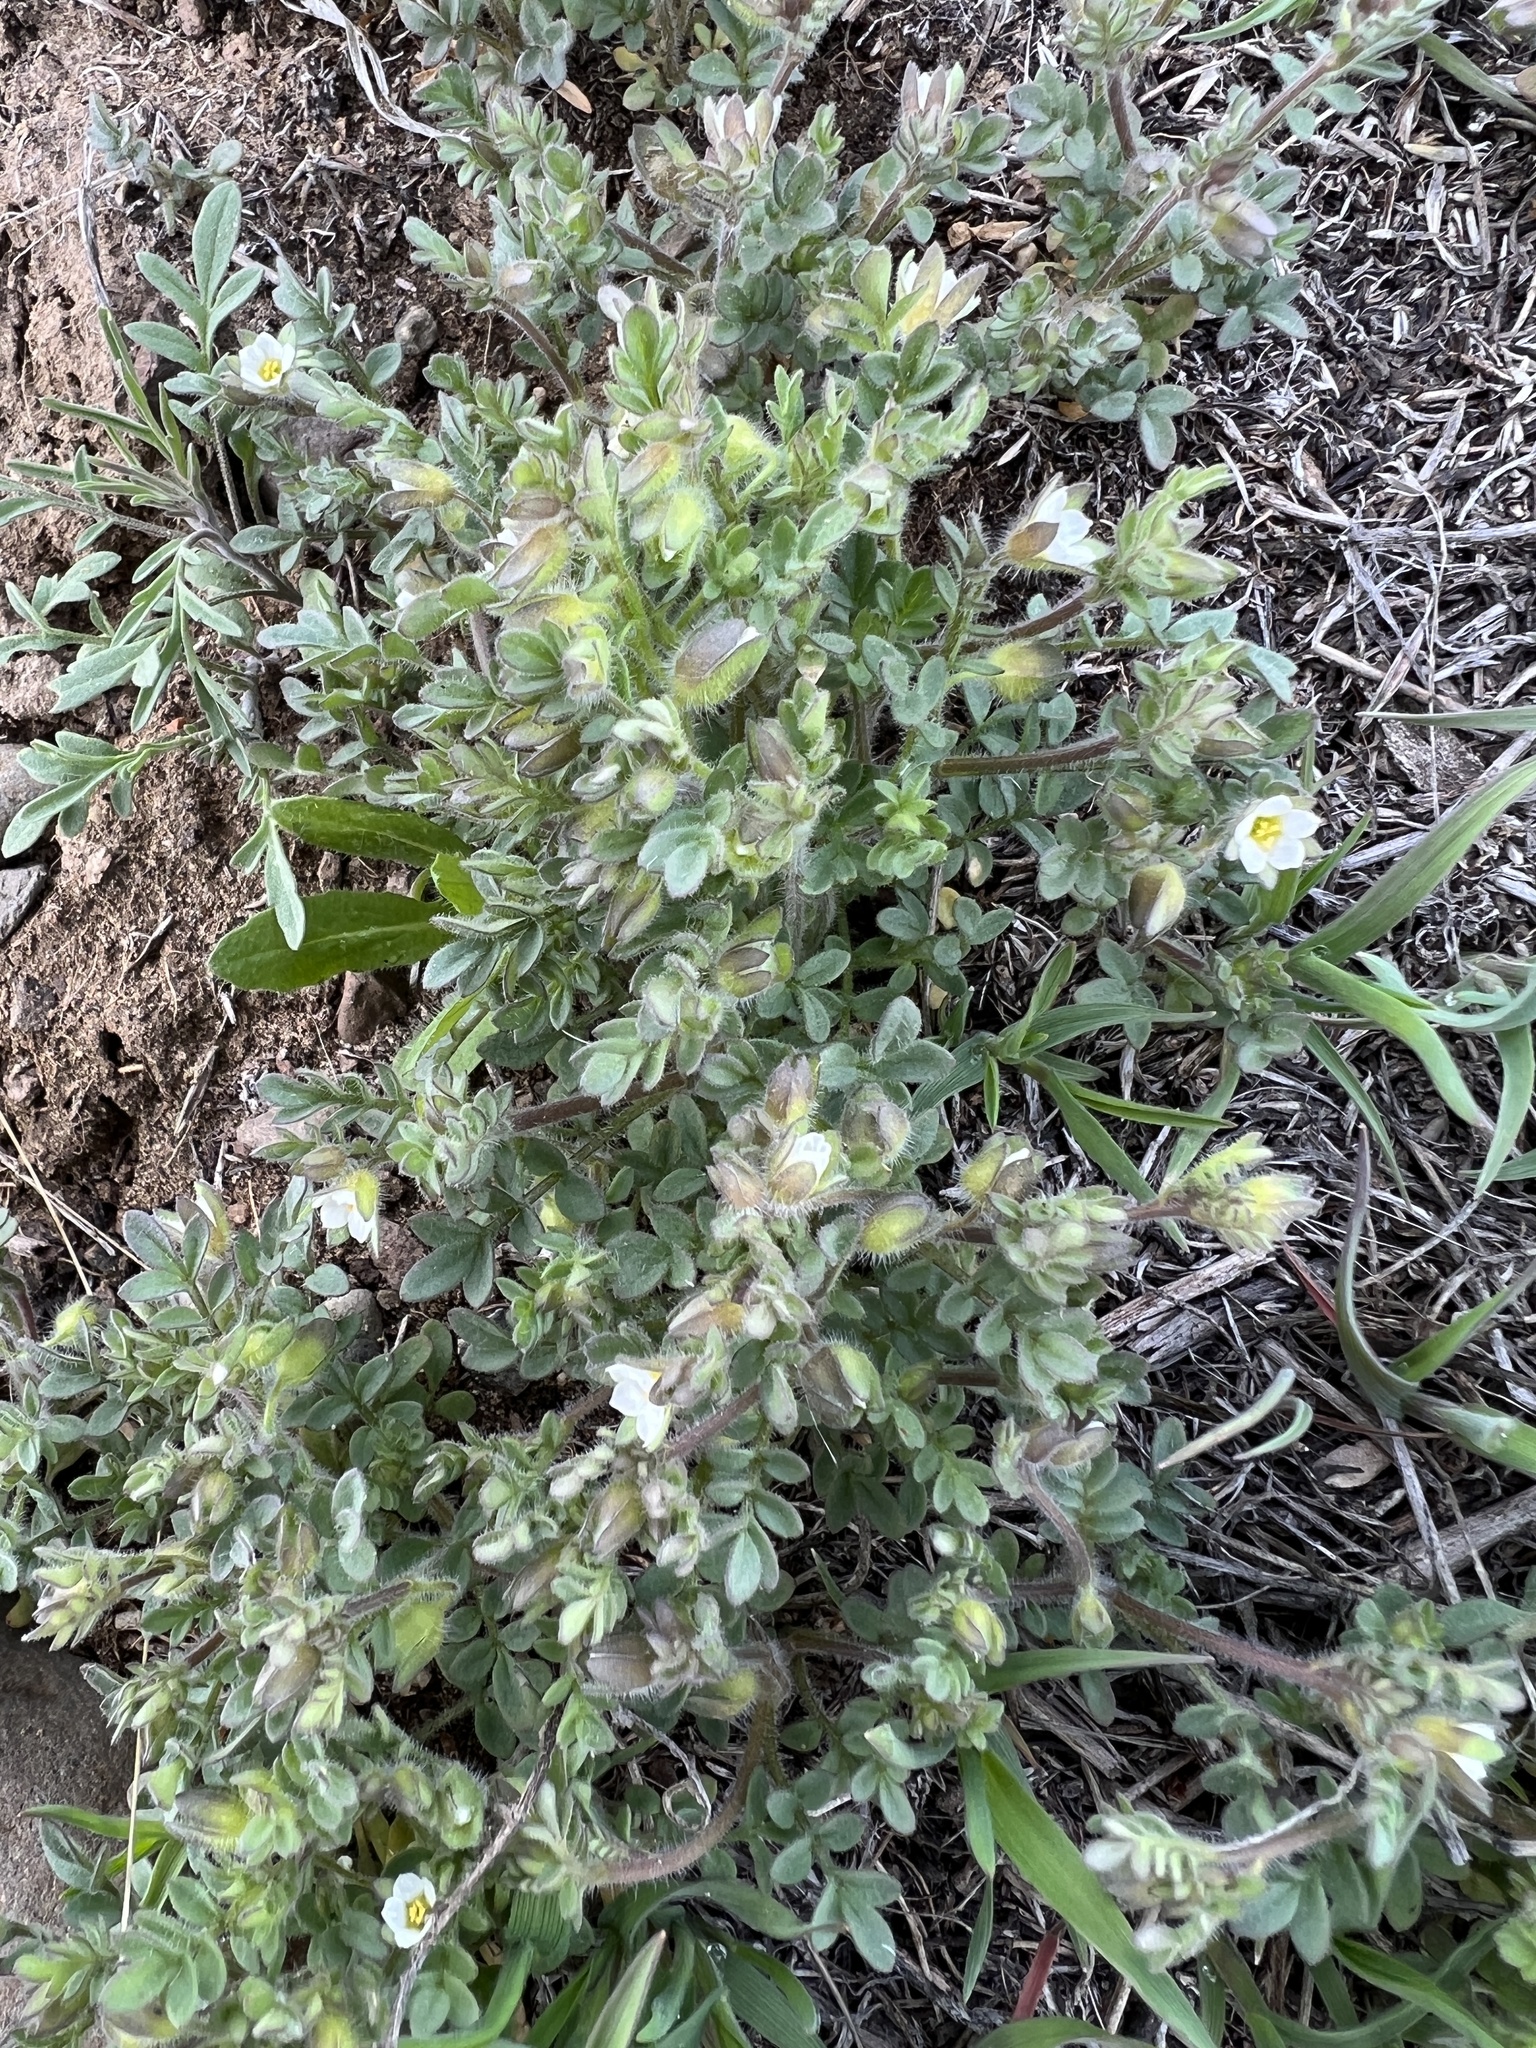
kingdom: Plantae
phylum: Tracheophyta
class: Magnoliopsida
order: Ericales
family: Polemoniaceae
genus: Polemonium
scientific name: Polemonium micranthum
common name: Annual jacob's-ladder
